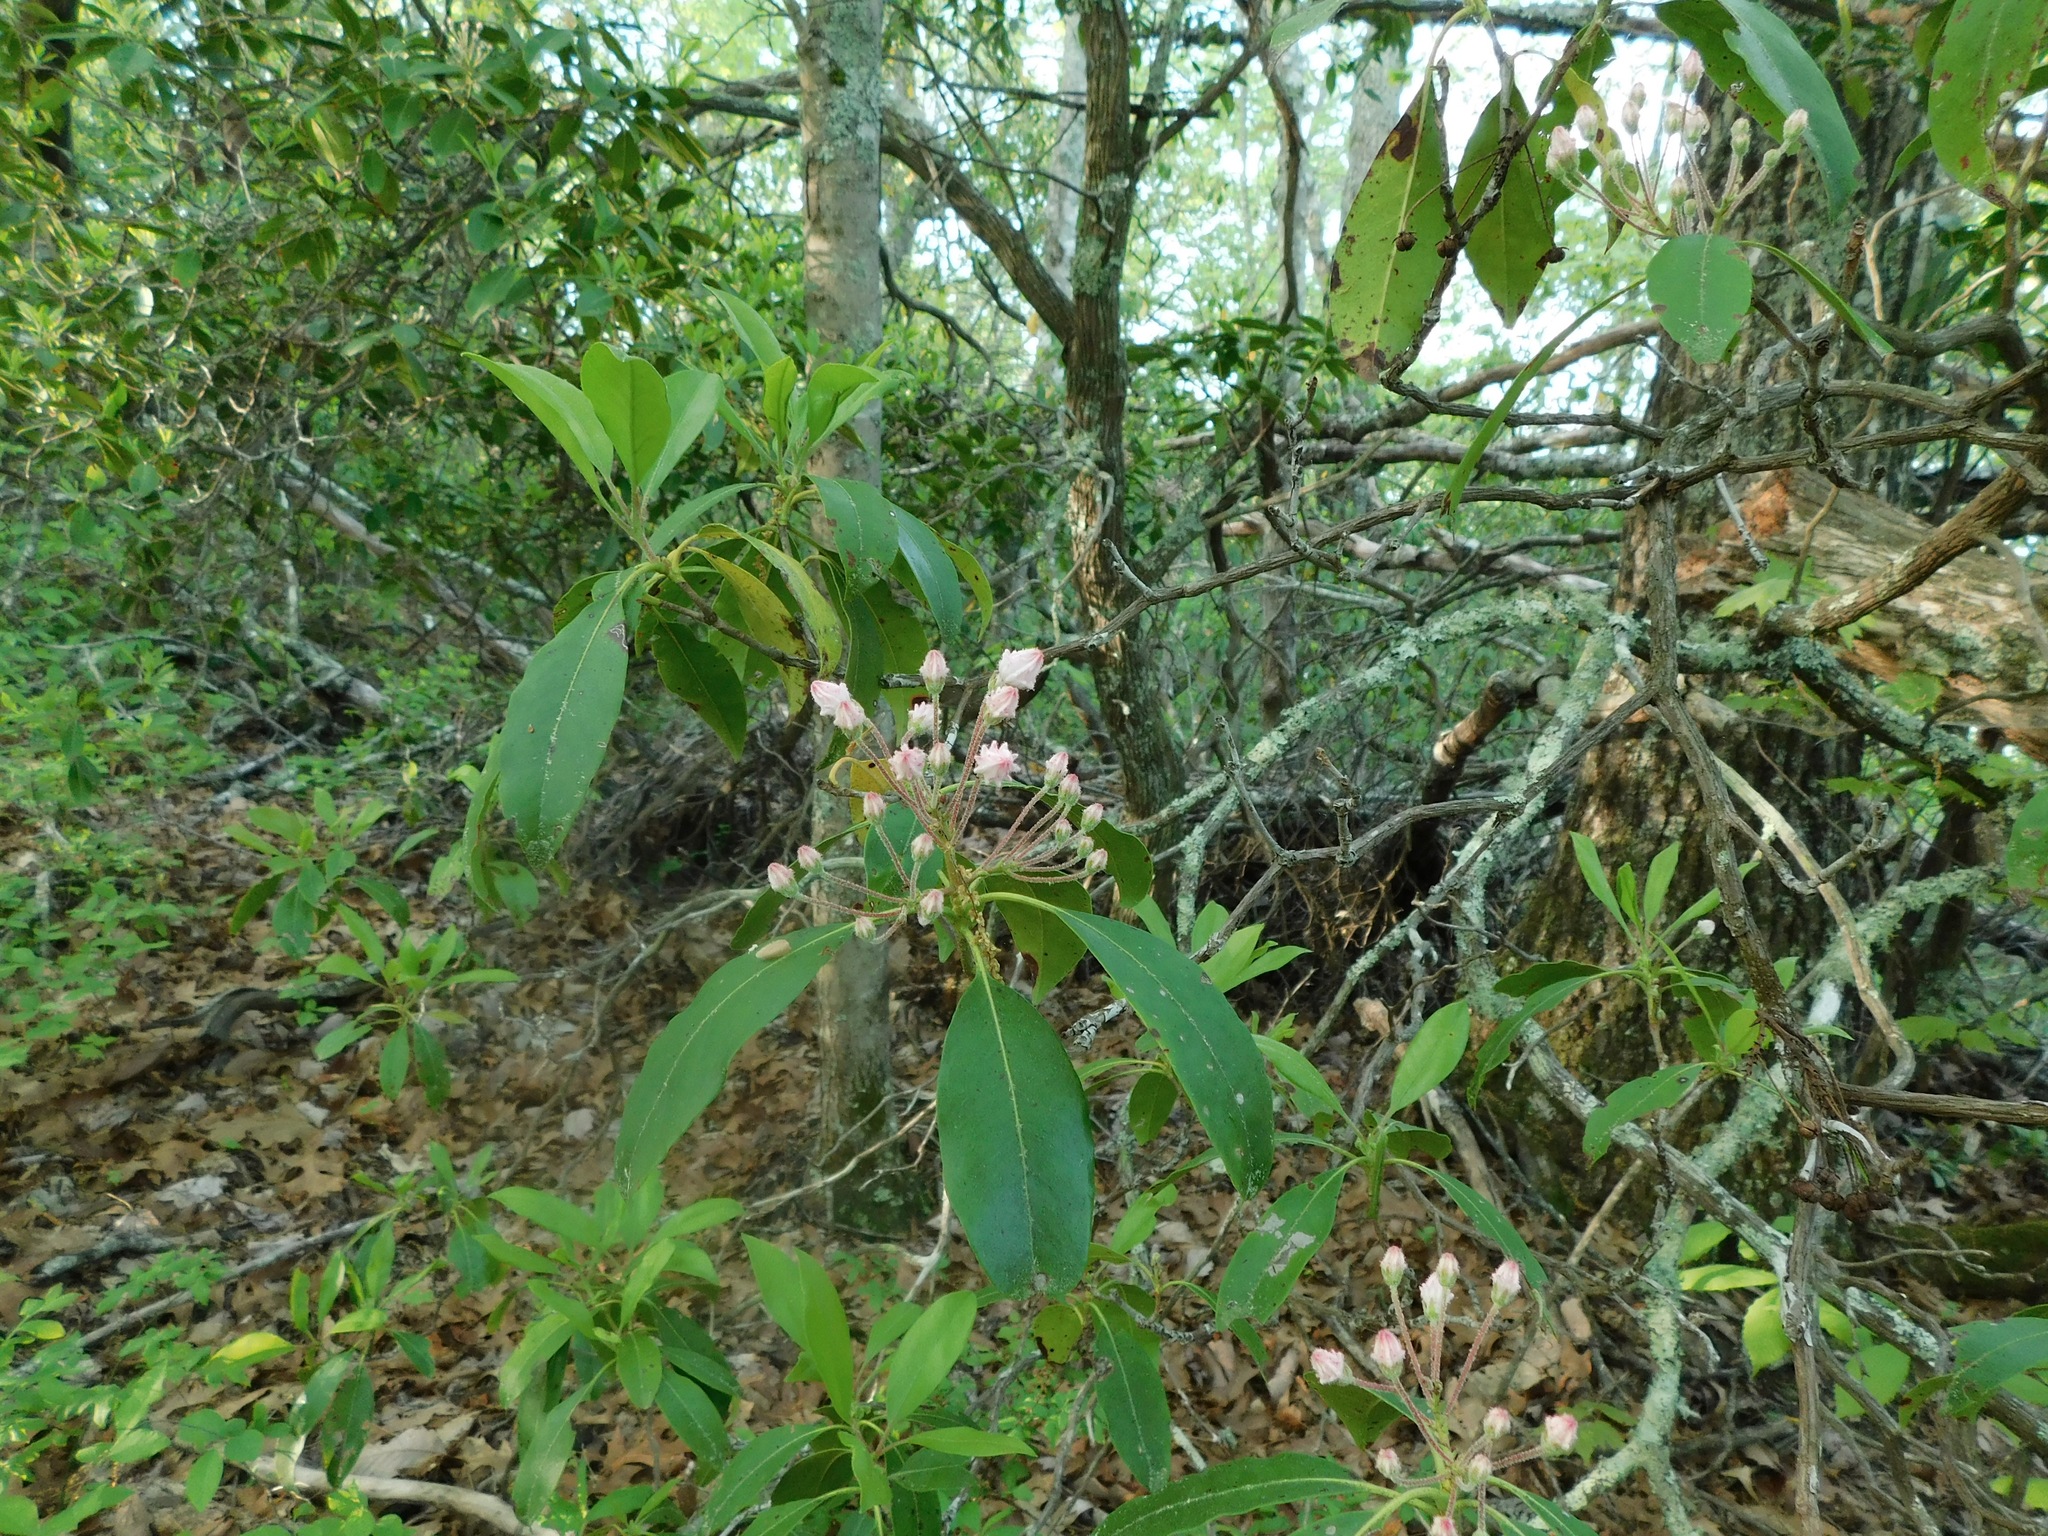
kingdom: Plantae
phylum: Tracheophyta
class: Magnoliopsida
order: Ericales
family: Ericaceae
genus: Kalmia
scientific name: Kalmia latifolia
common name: Mountain-laurel
